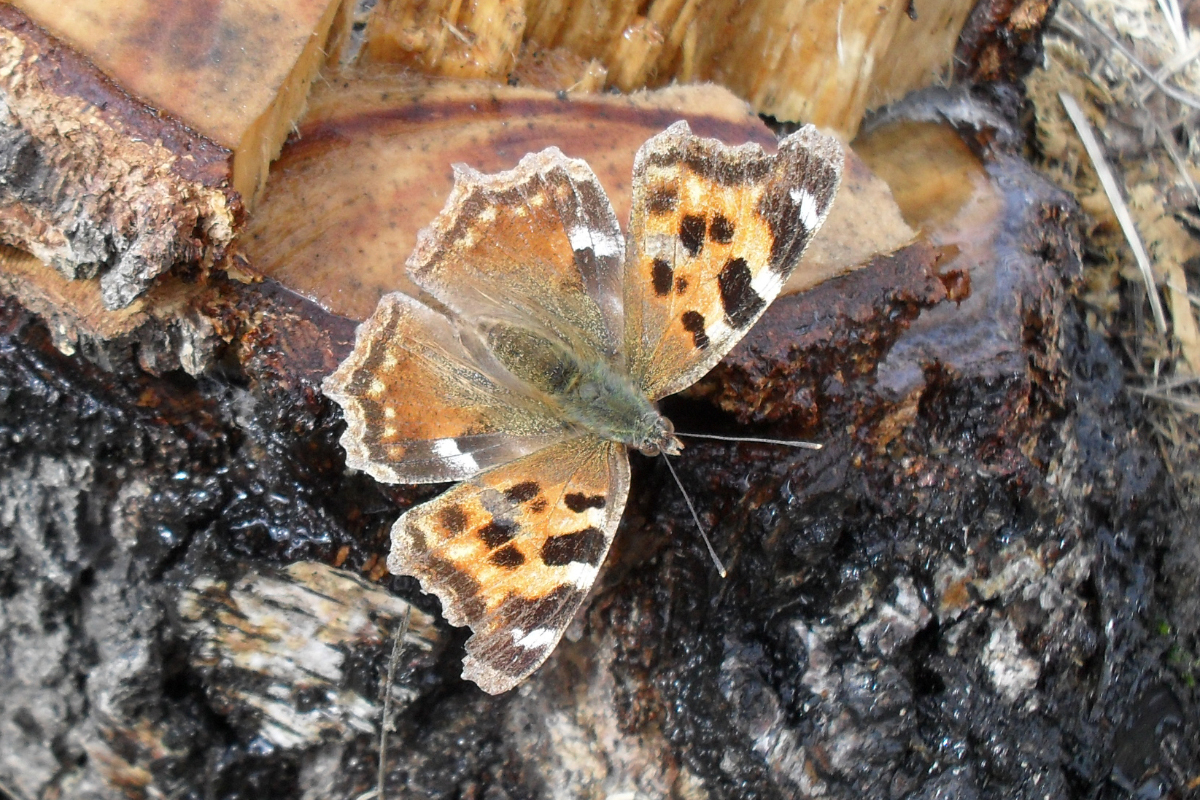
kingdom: Animalia
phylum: Arthropoda
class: Insecta
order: Lepidoptera
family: Nymphalidae
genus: Polygonia
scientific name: Polygonia vaualbum
